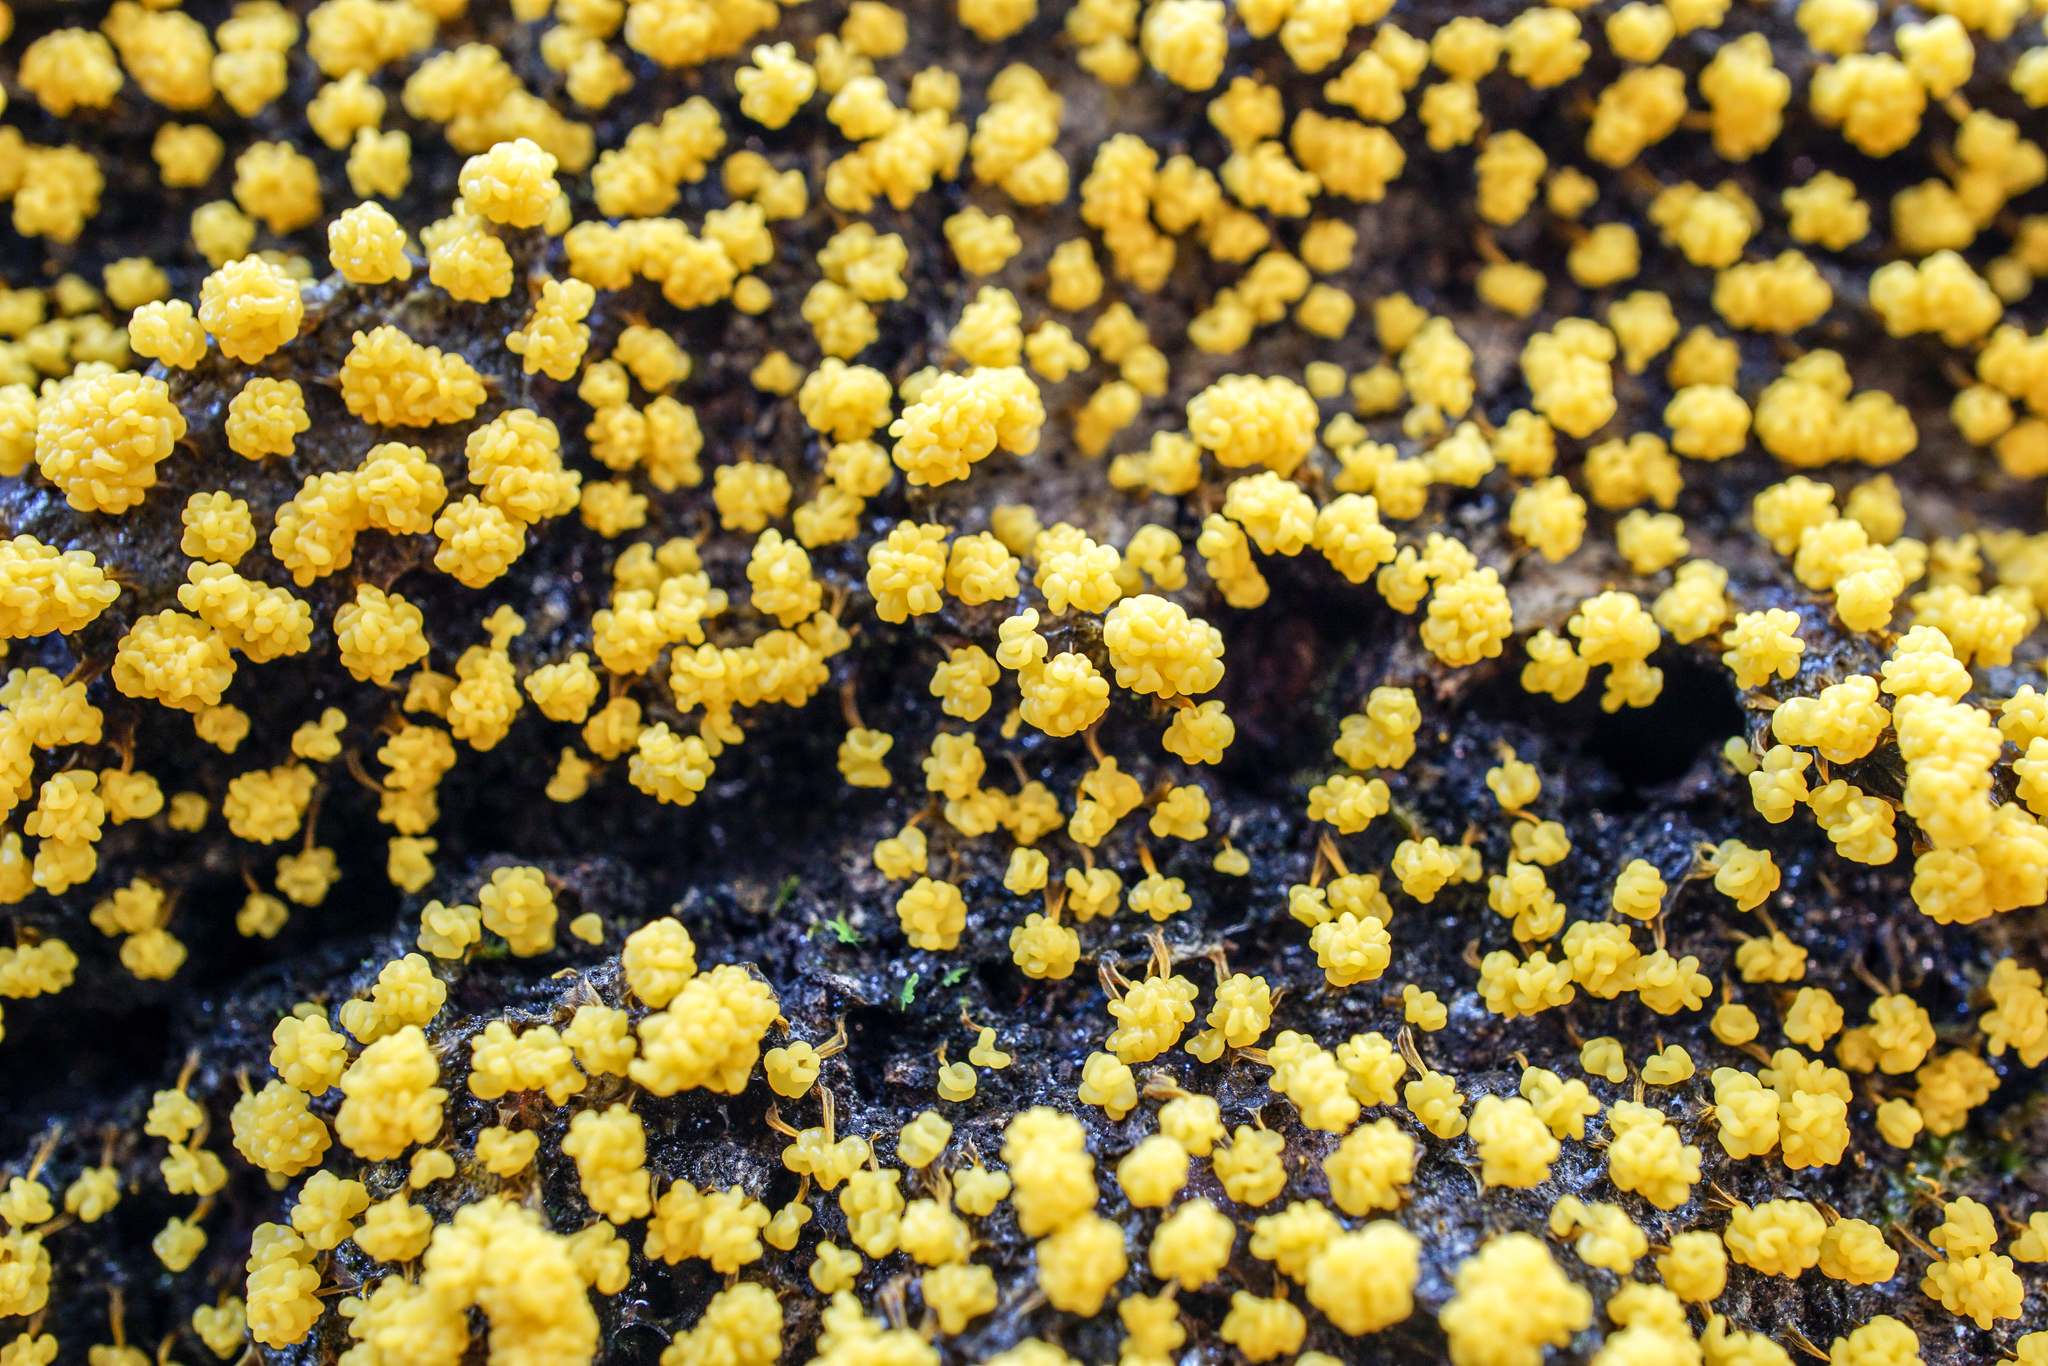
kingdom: Protozoa
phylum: Mycetozoa
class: Myxomycetes
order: Physarales
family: Physaraceae
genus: Physarum
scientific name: Physarum polycephalum
